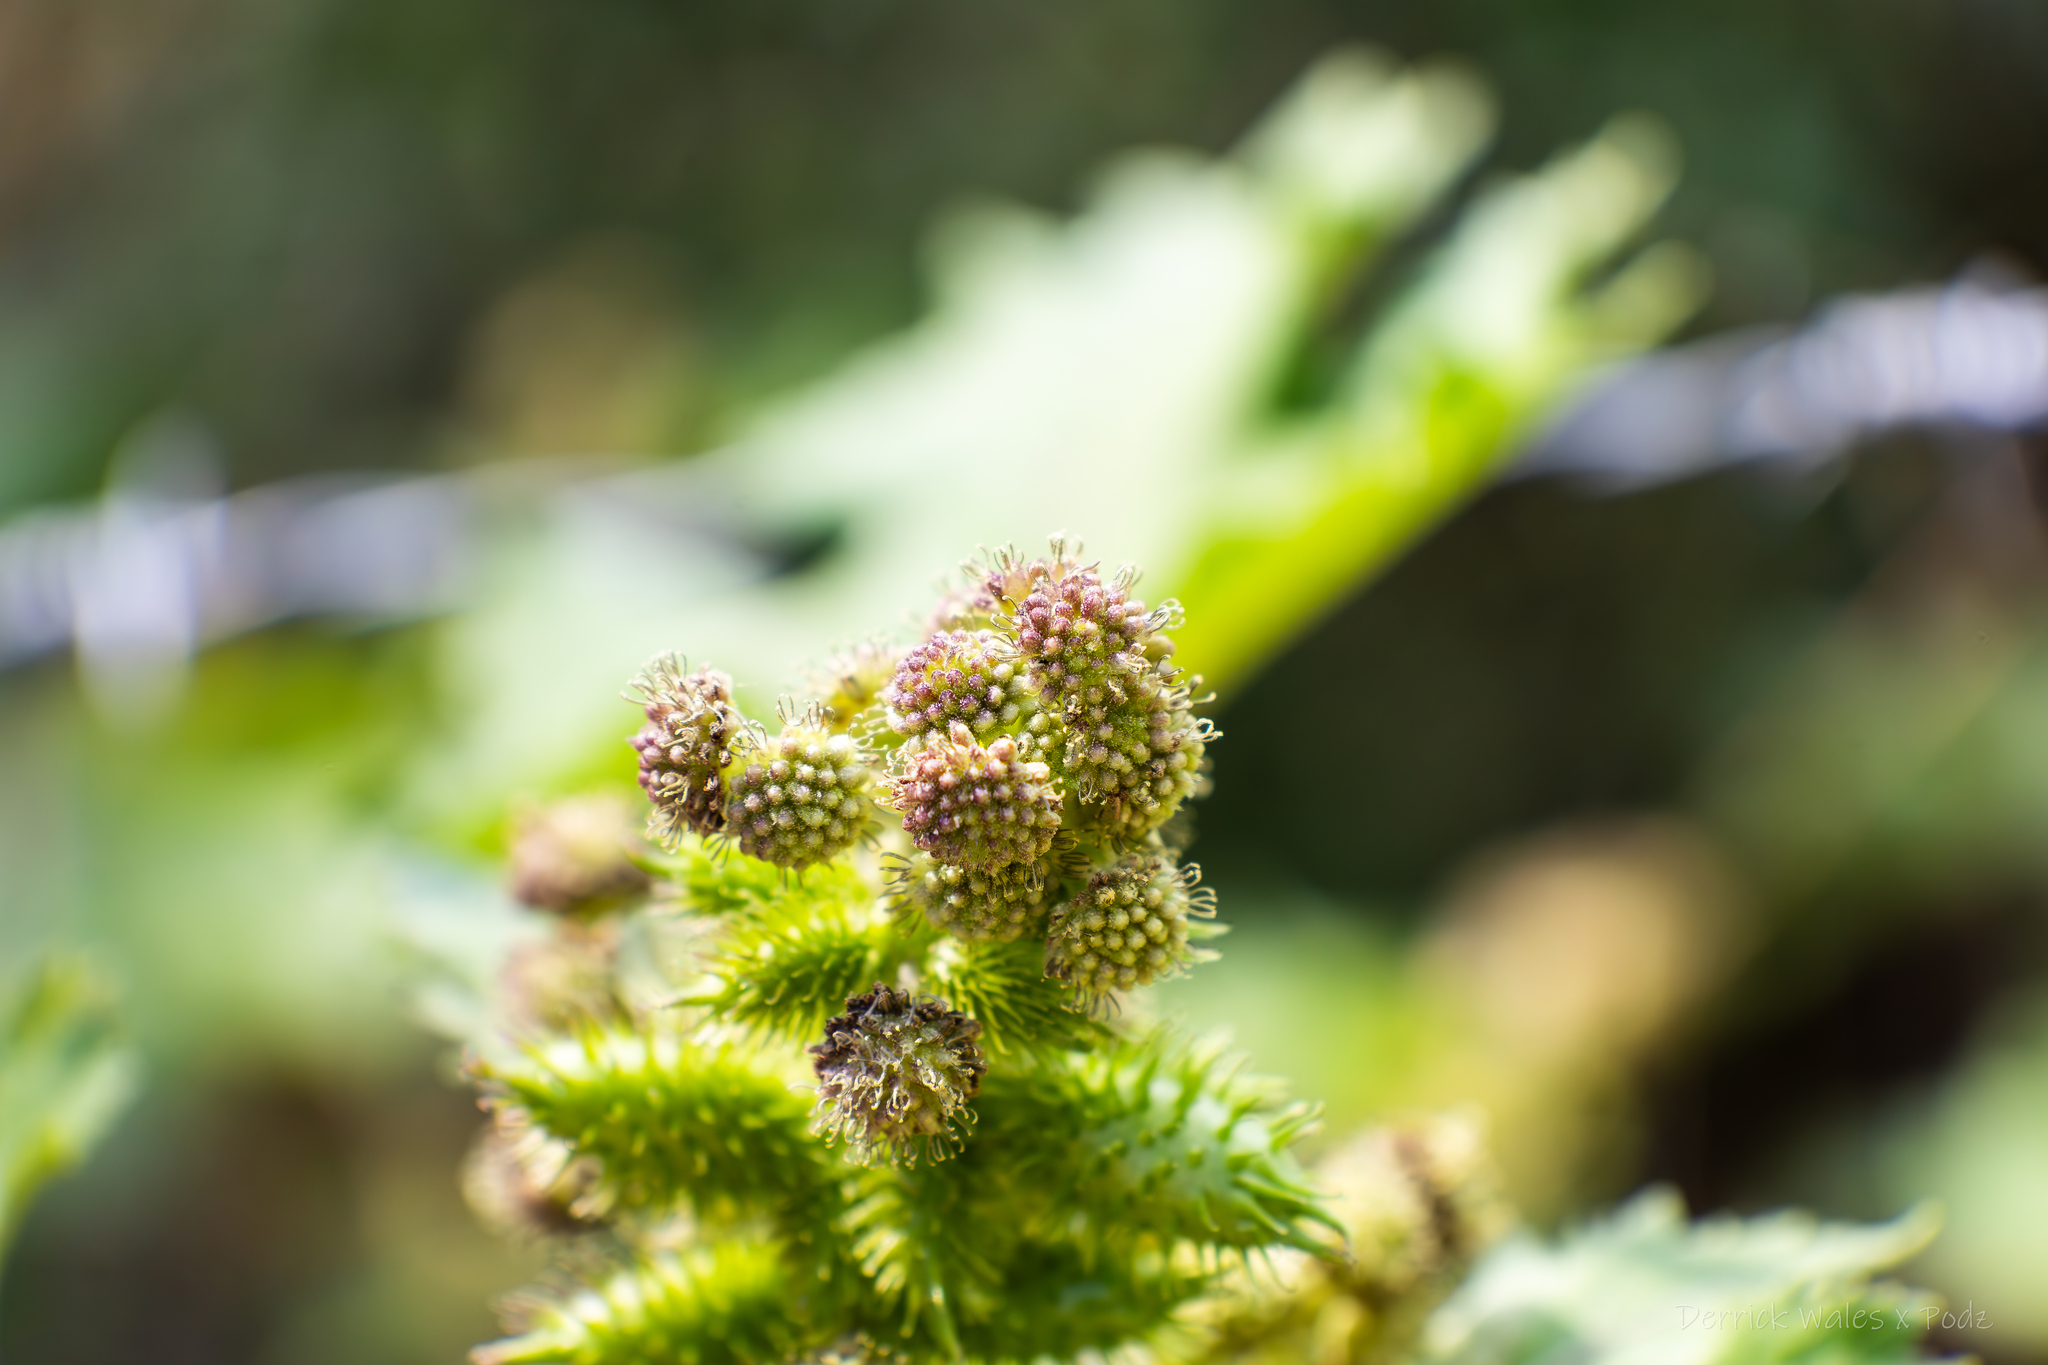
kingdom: Plantae
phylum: Tracheophyta
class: Magnoliopsida
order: Asterales
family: Asteraceae
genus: Xanthium
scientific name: Xanthium strumarium
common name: Rough cocklebur
